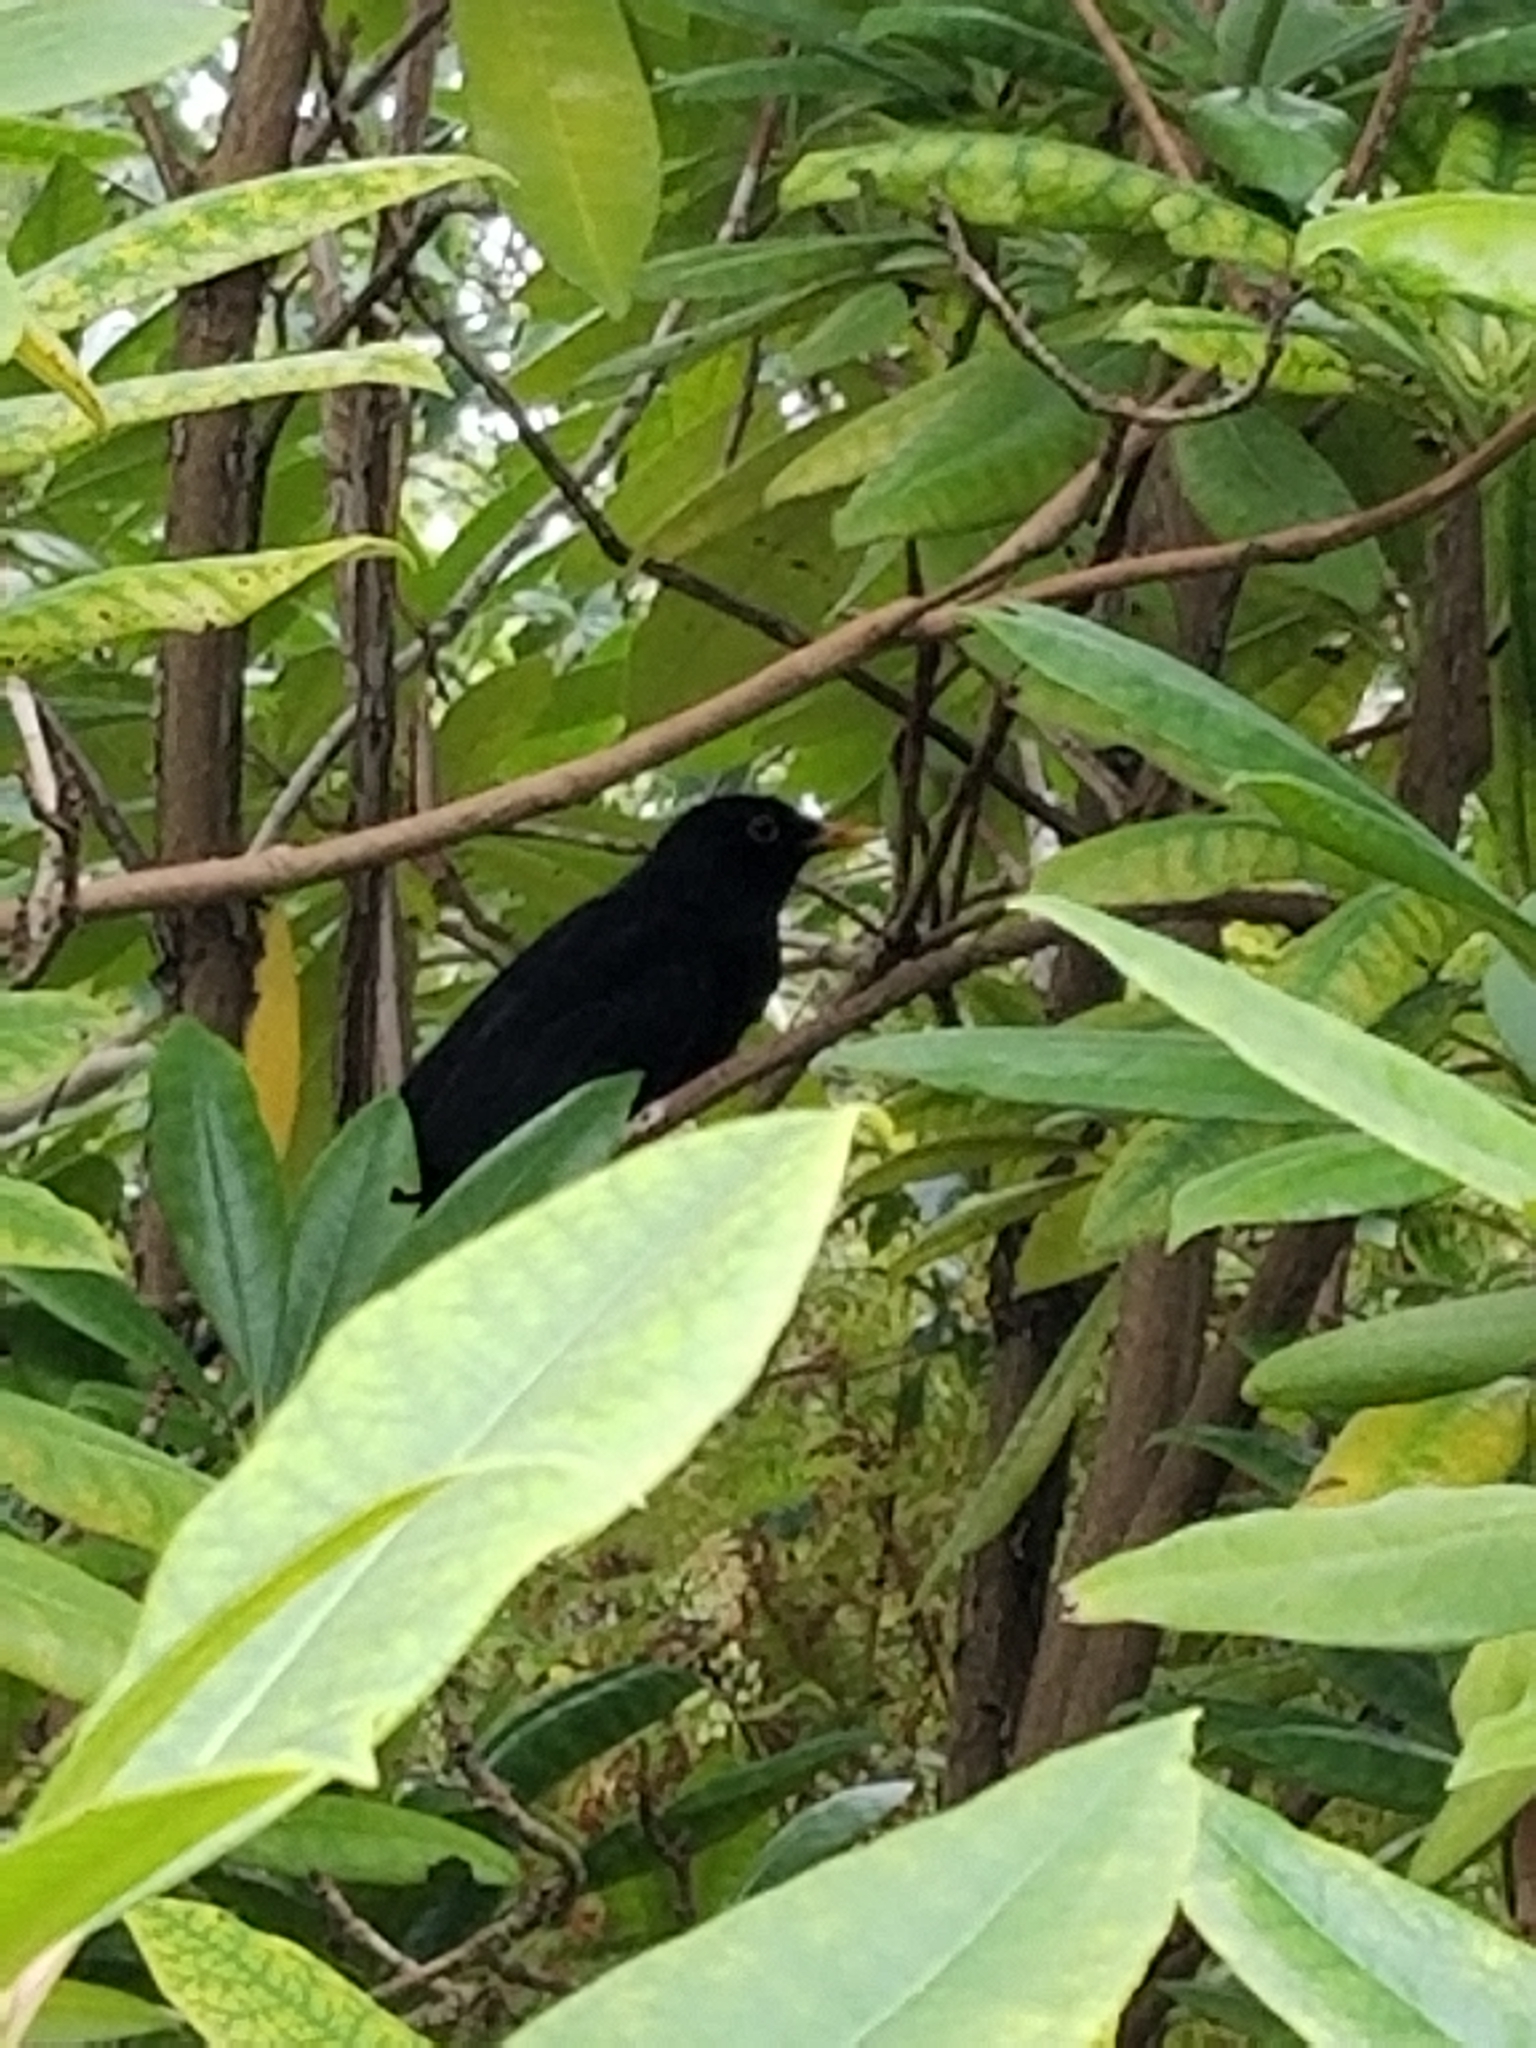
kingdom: Animalia
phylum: Chordata
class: Aves
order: Passeriformes
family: Turdidae
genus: Turdus
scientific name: Turdus merula
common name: Common blackbird
